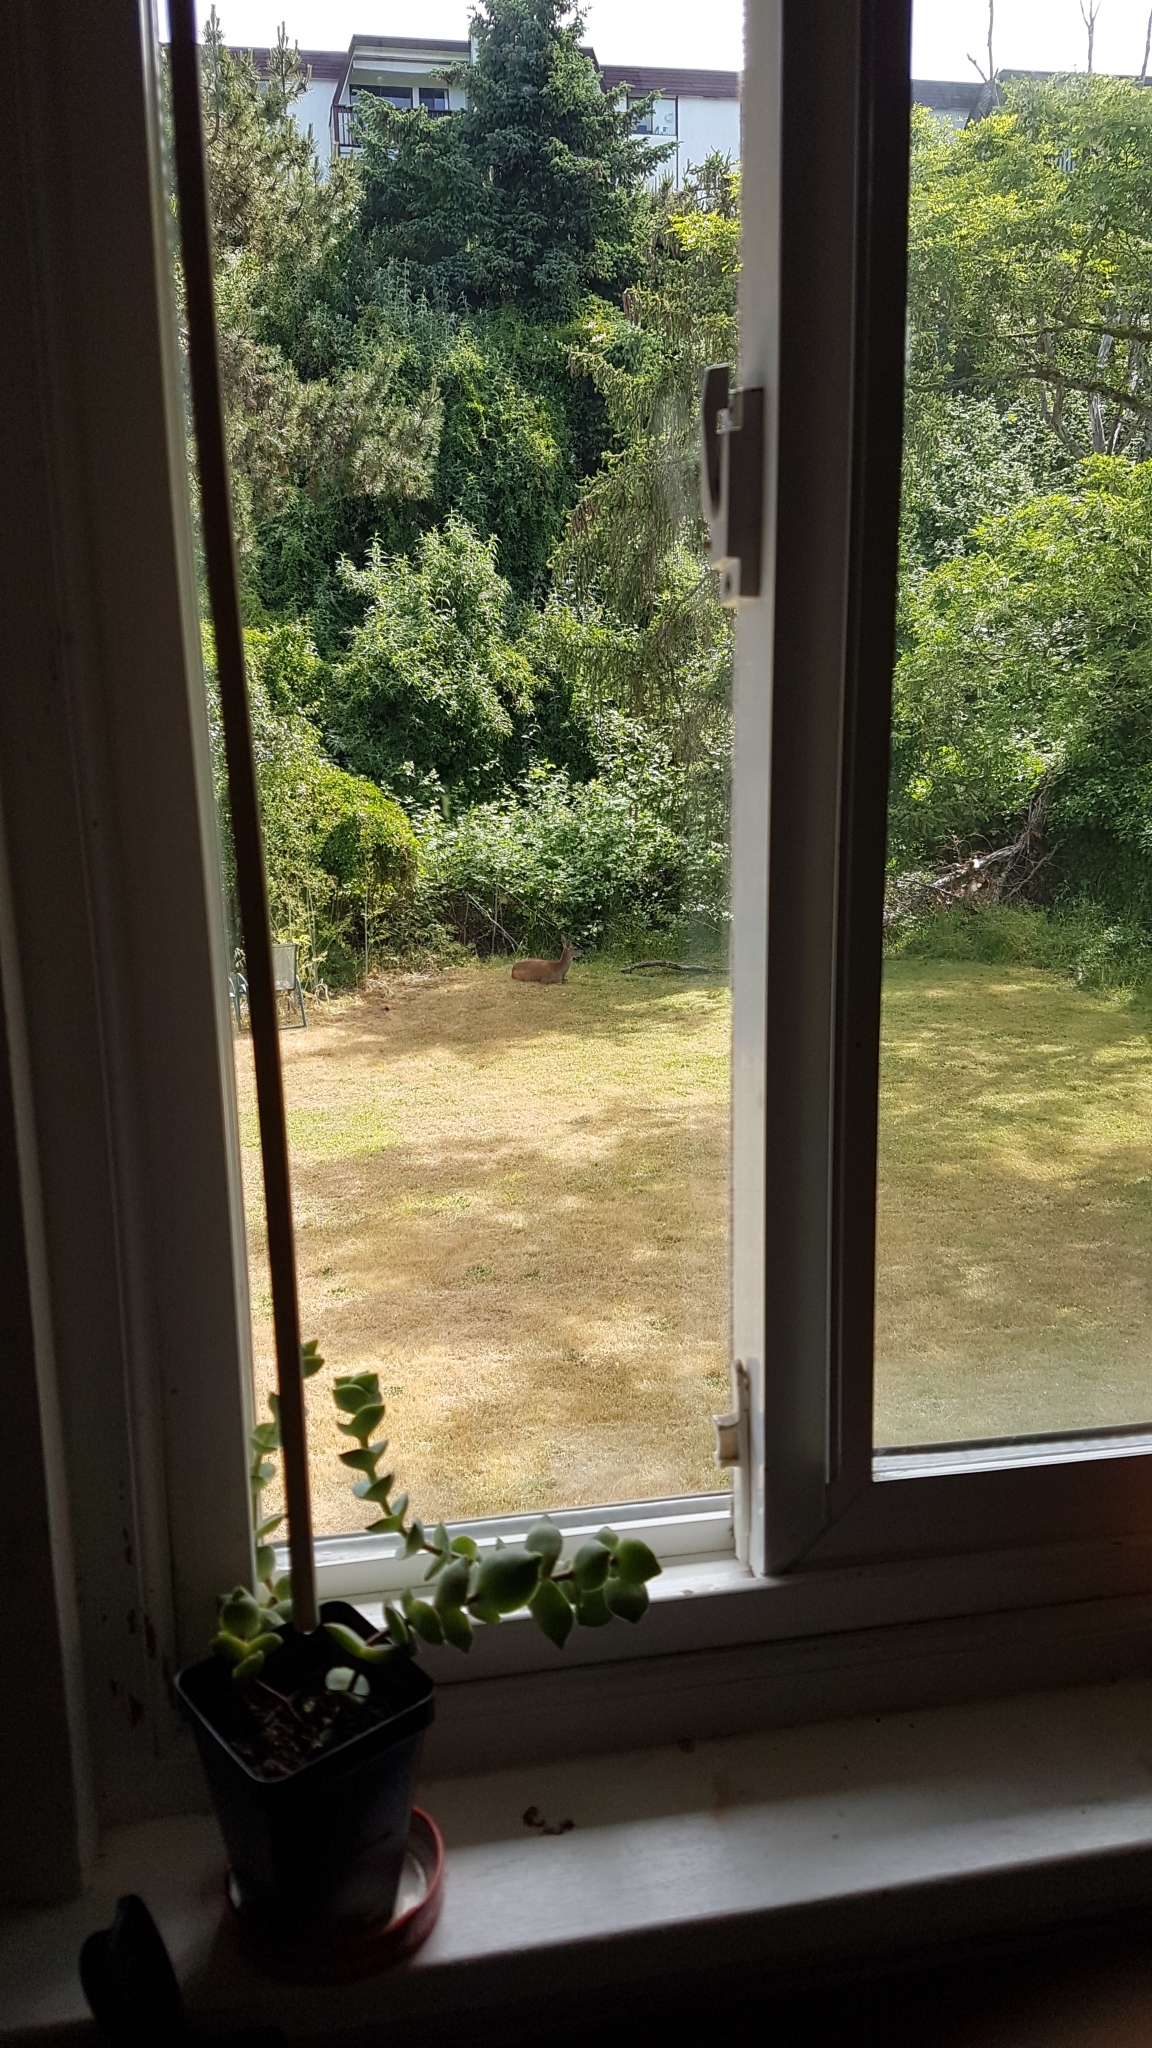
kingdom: Animalia
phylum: Chordata
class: Mammalia
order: Artiodactyla
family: Cervidae
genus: Odocoileus
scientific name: Odocoileus hemionus
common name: Mule deer
